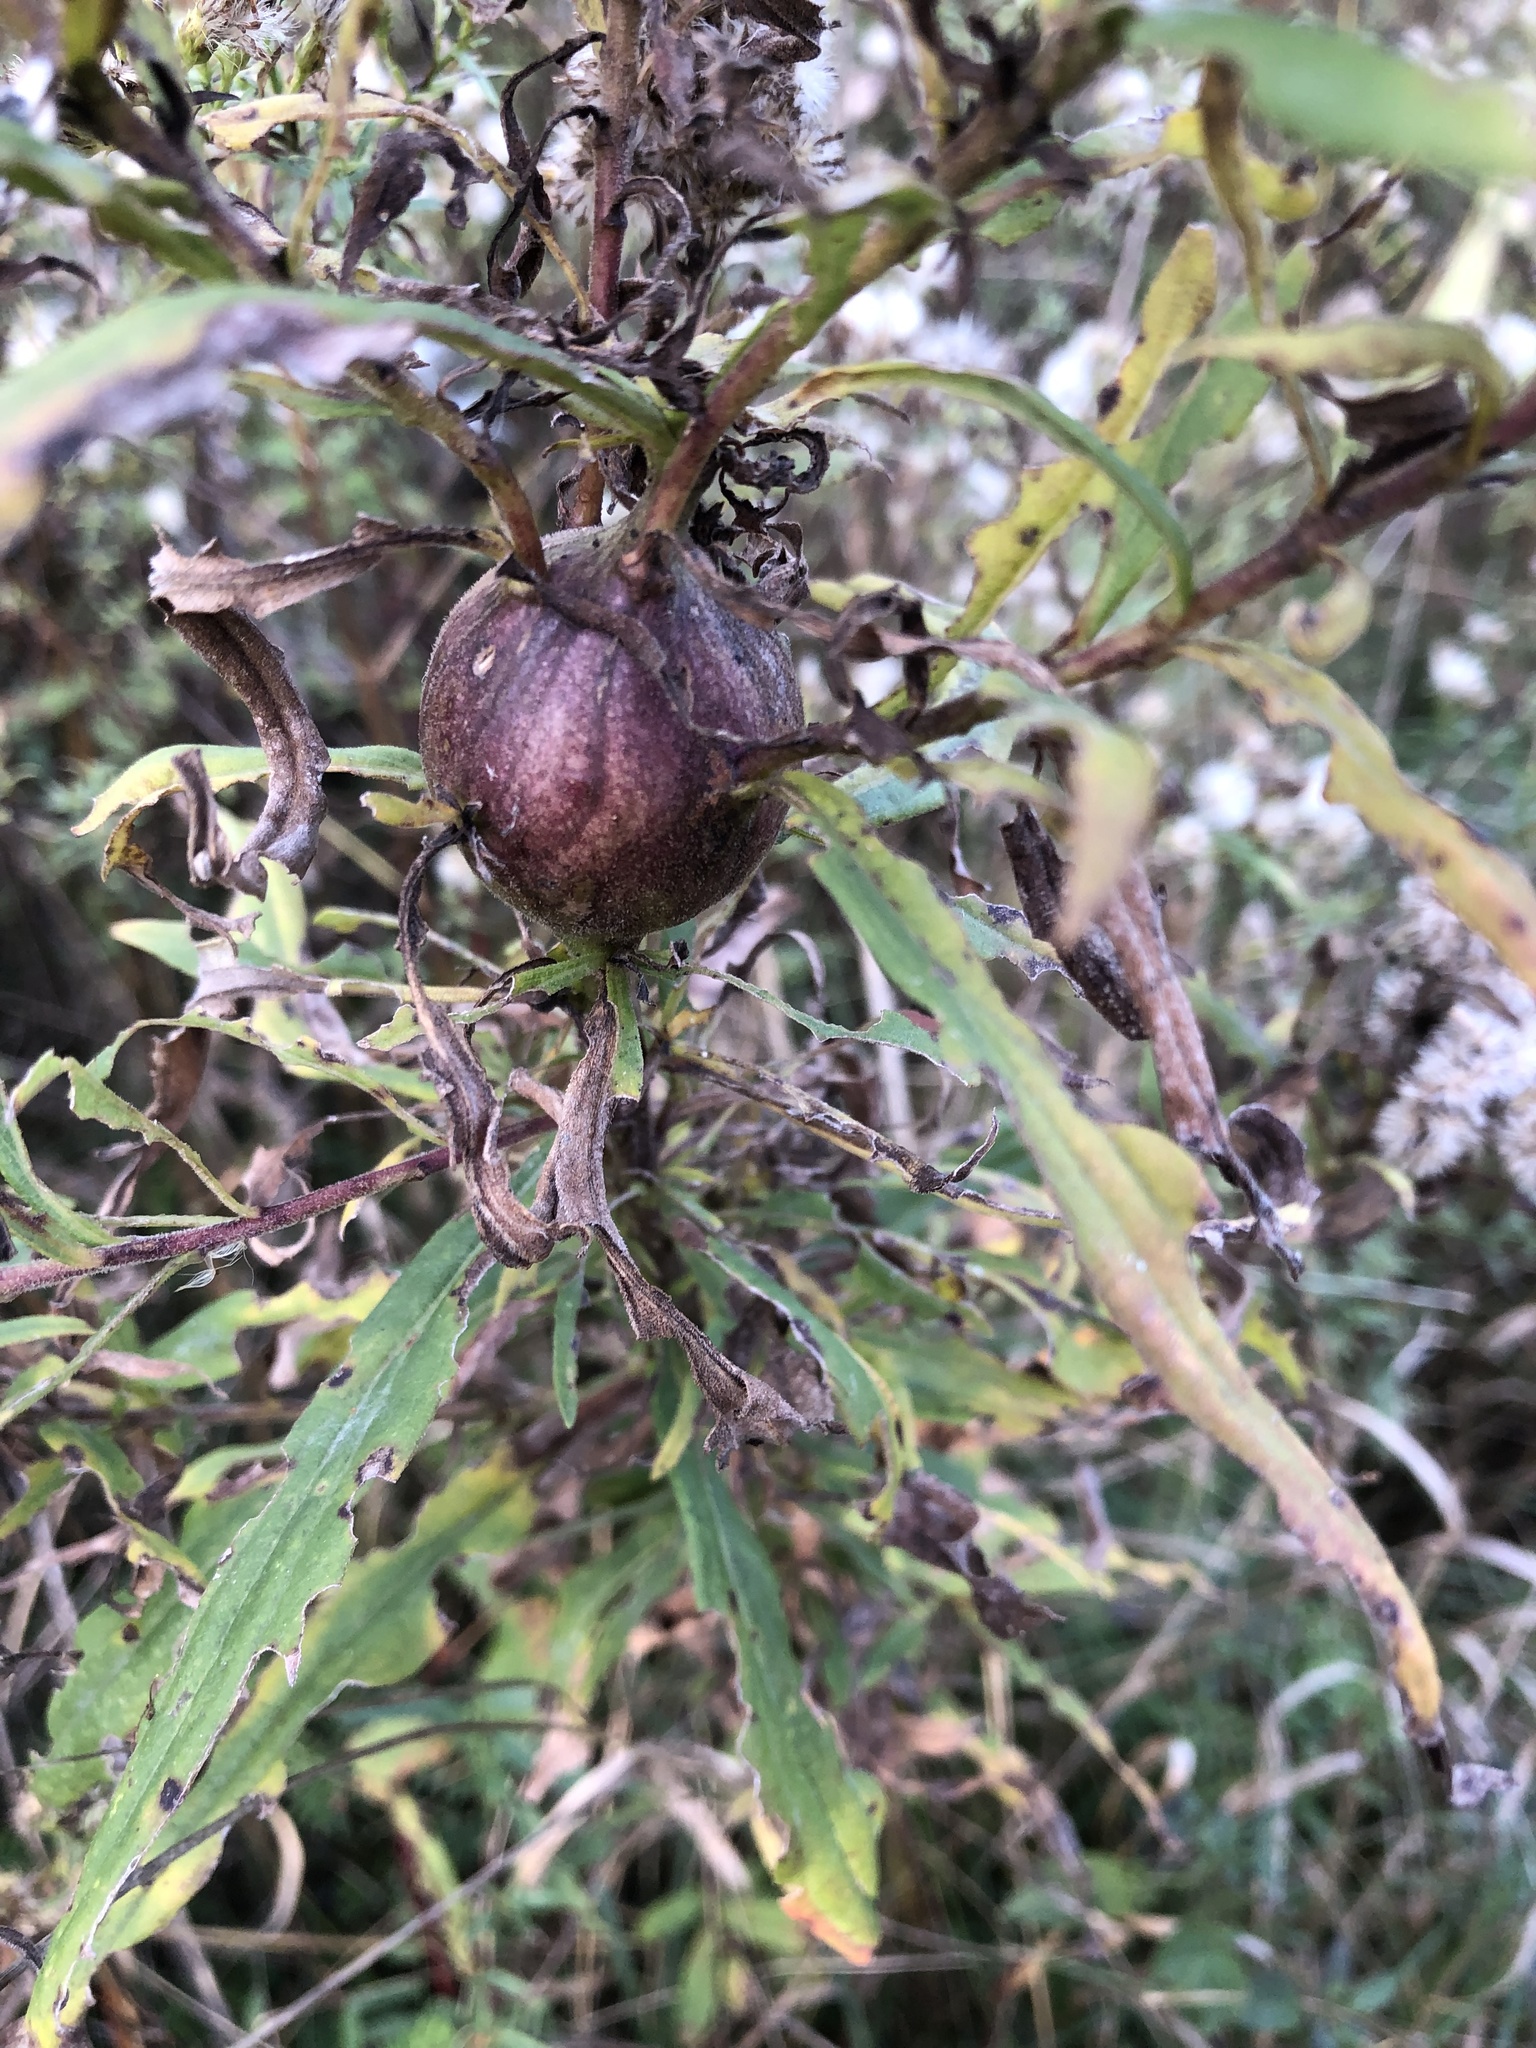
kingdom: Animalia
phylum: Arthropoda
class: Insecta
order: Diptera
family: Tephritidae
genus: Eurosta
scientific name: Eurosta solidaginis
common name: Goldenrod gall fly
